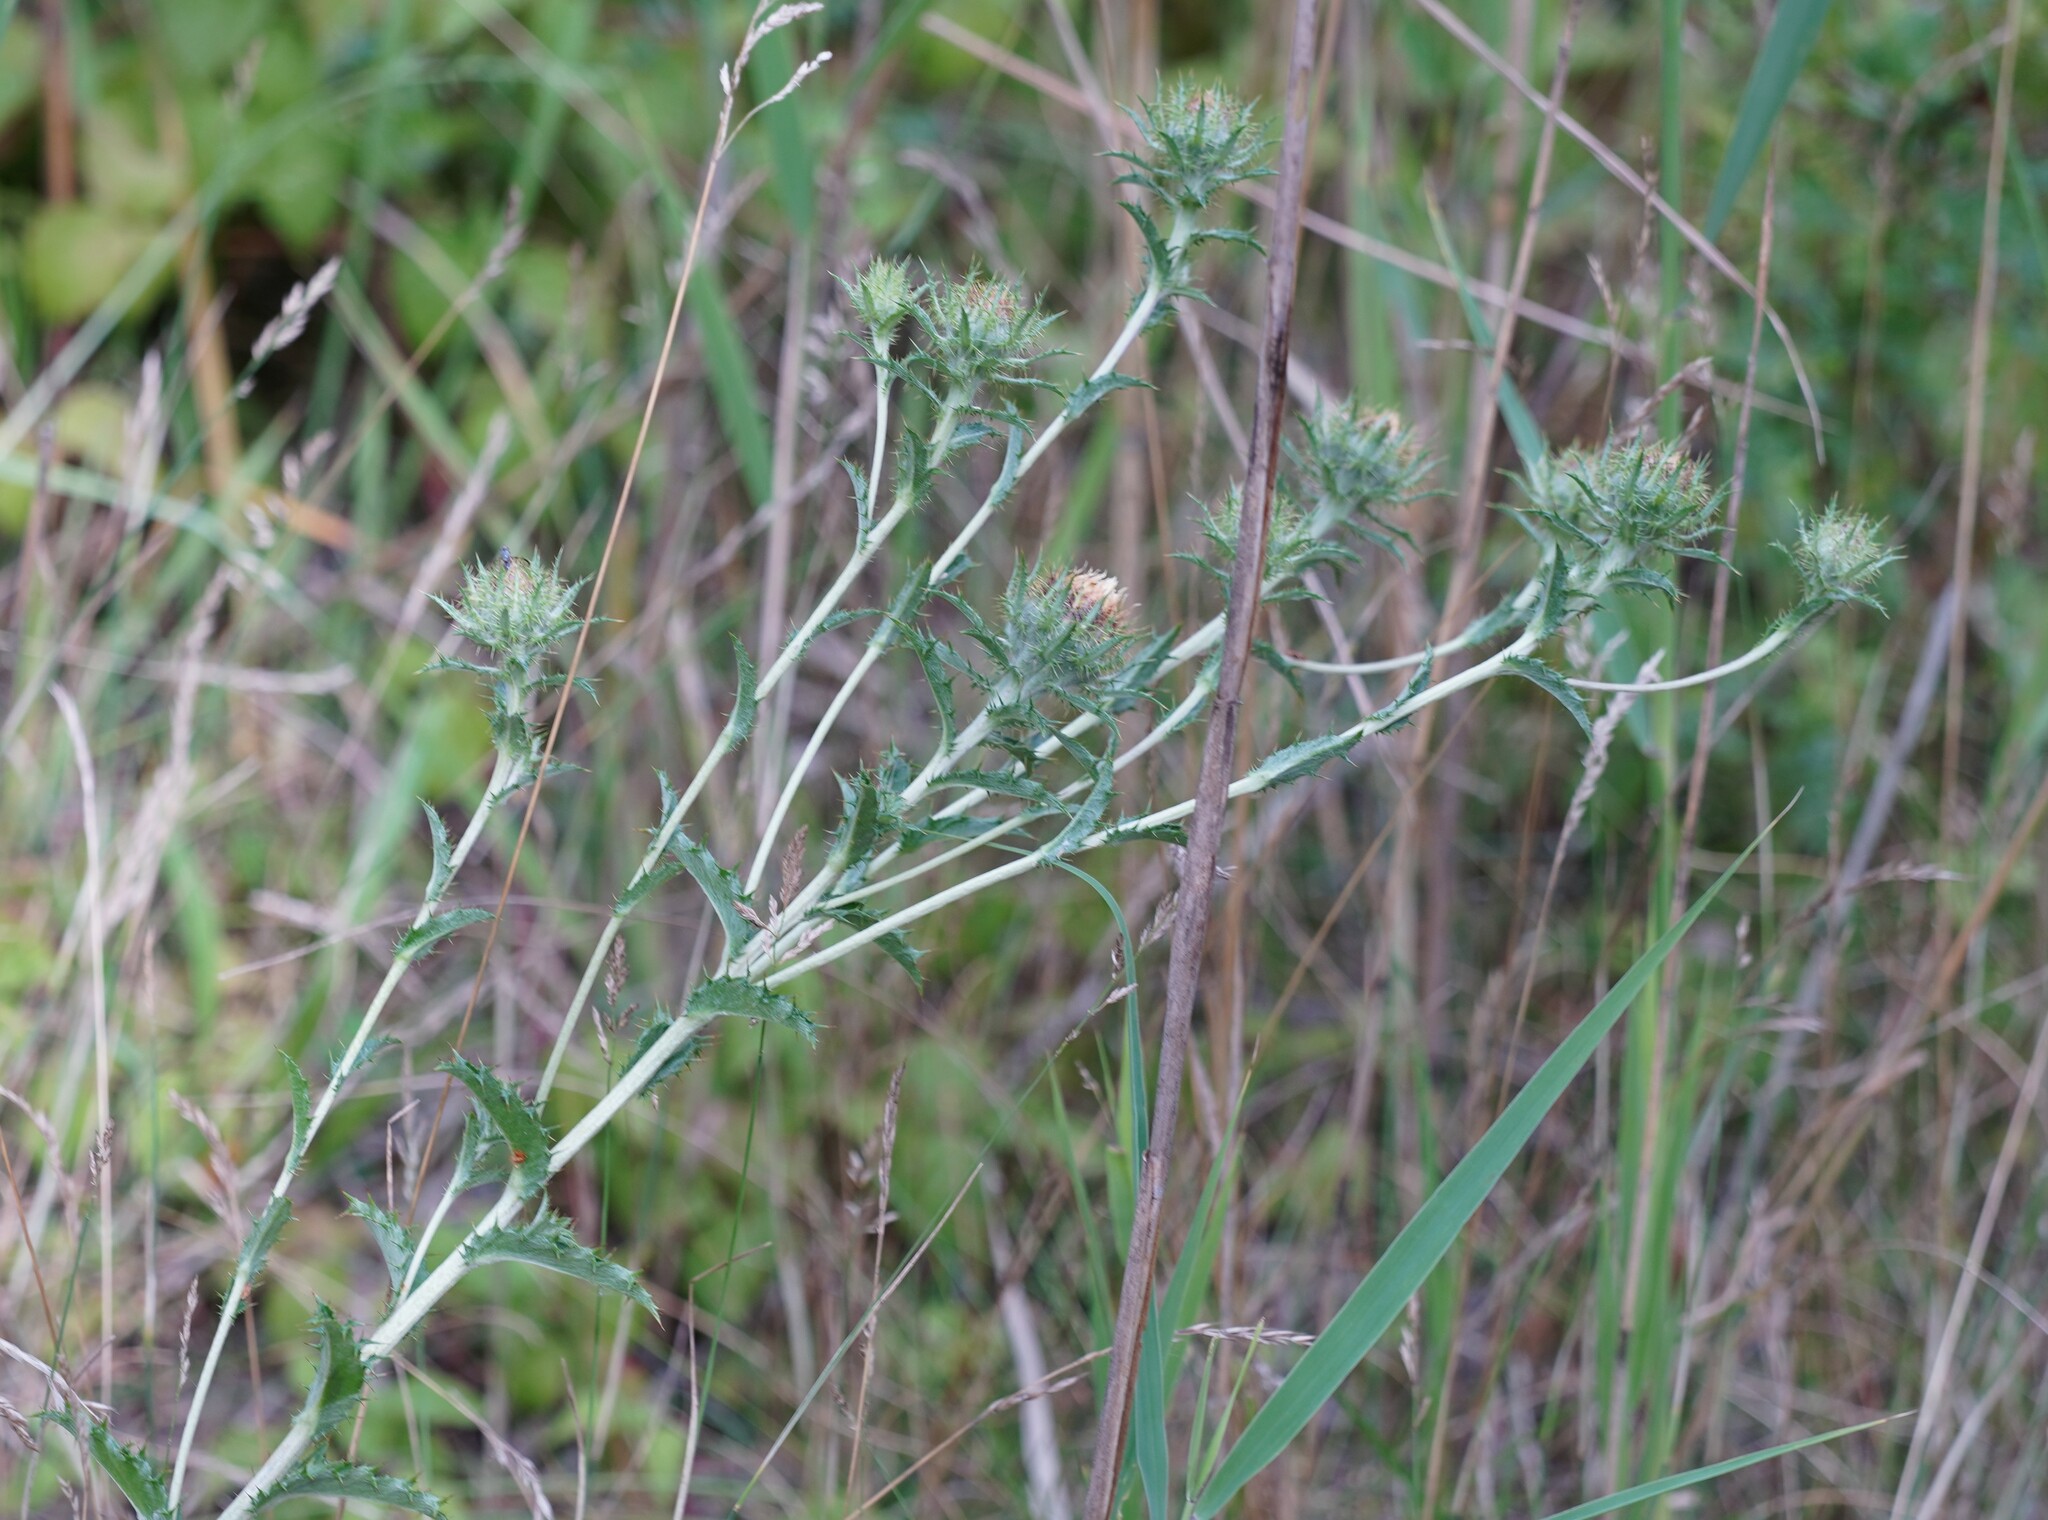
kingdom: Plantae
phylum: Tracheophyta
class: Magnoliopsida
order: Asterales
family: Asteraceae
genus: Carlina
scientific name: Carlina vulgaris
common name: Carline thistle
